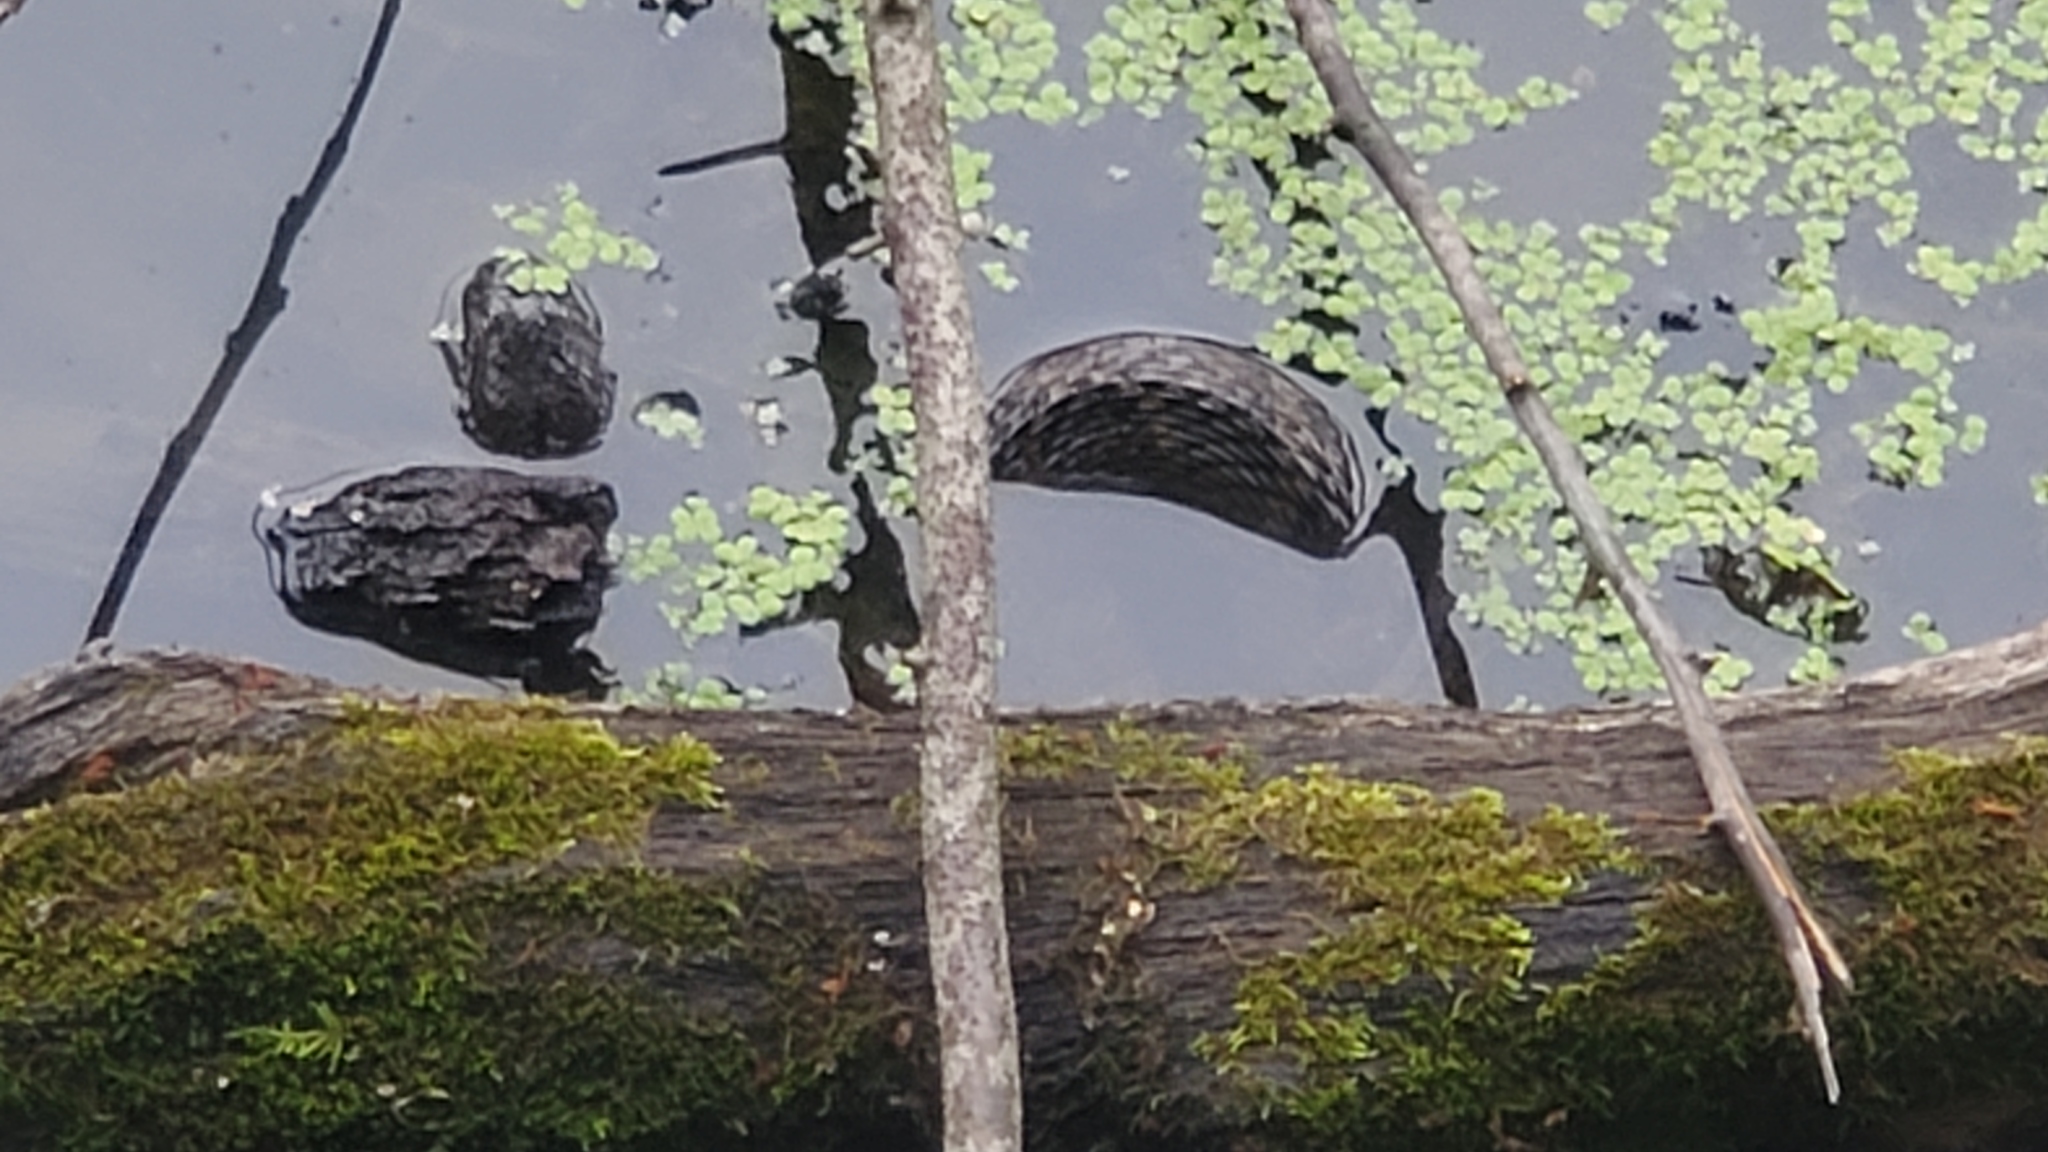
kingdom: Animalia
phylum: Chordata
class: Squamata
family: Colubridae
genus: Nerodia
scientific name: Nerodia sipedon
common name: Northern water snake
